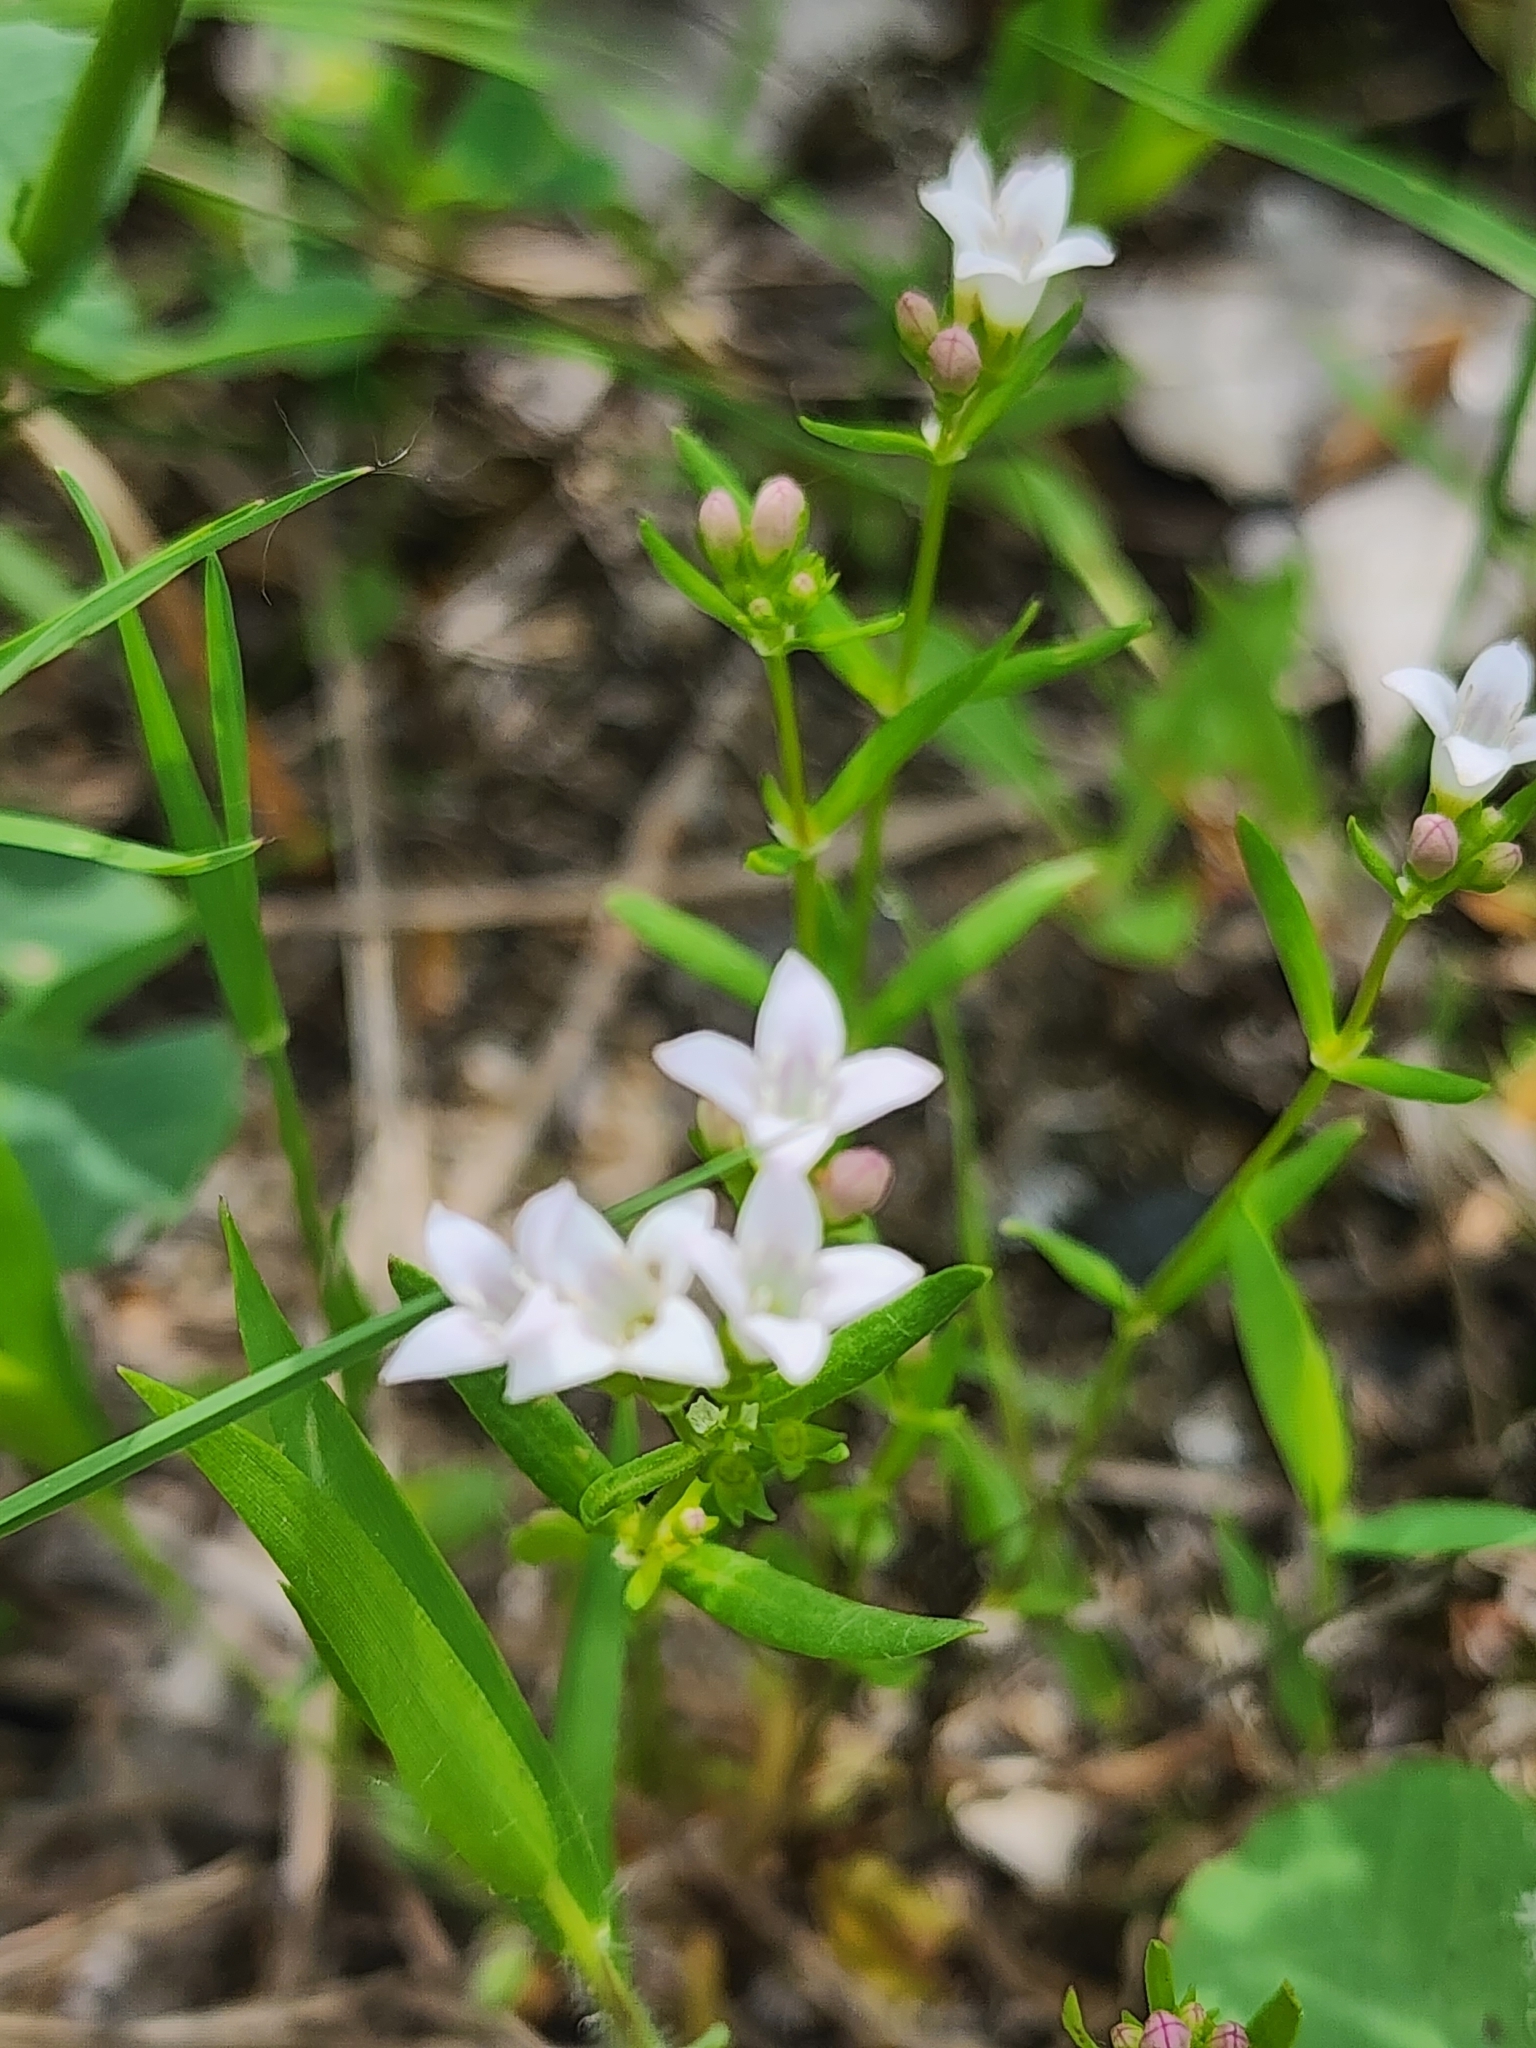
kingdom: Plantae
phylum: Tracheophyta
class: Magnoliopsida
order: Gentianales
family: Rubiaceae
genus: Houstonia
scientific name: Houstonia longifolia
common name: Long-leaved bluets
